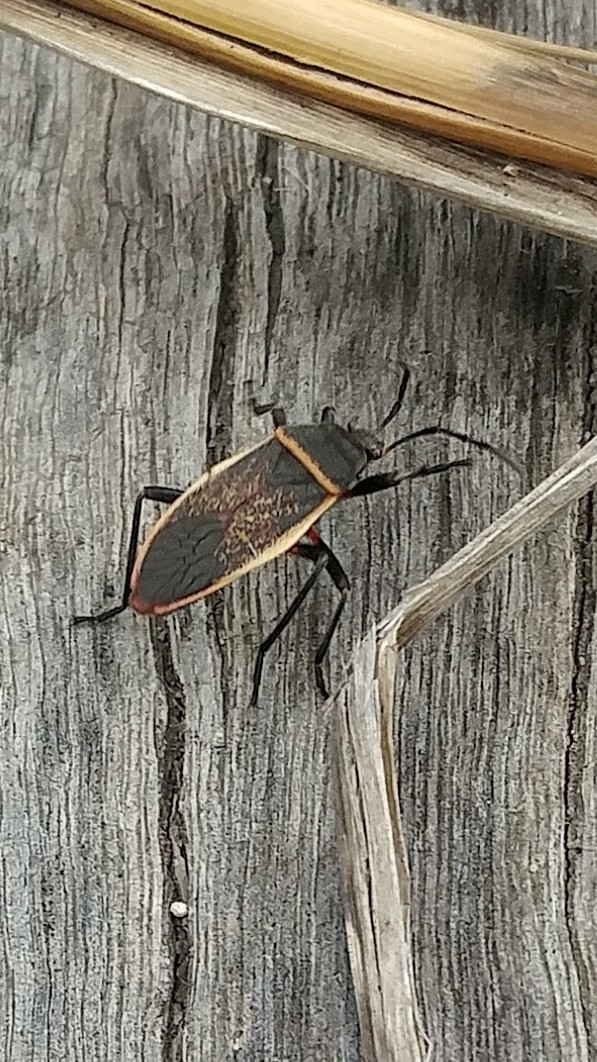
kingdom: Animalia
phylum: Arthropoda
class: Insecta
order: Hemiptera
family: Largidae
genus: Largus
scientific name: Largus californicus
